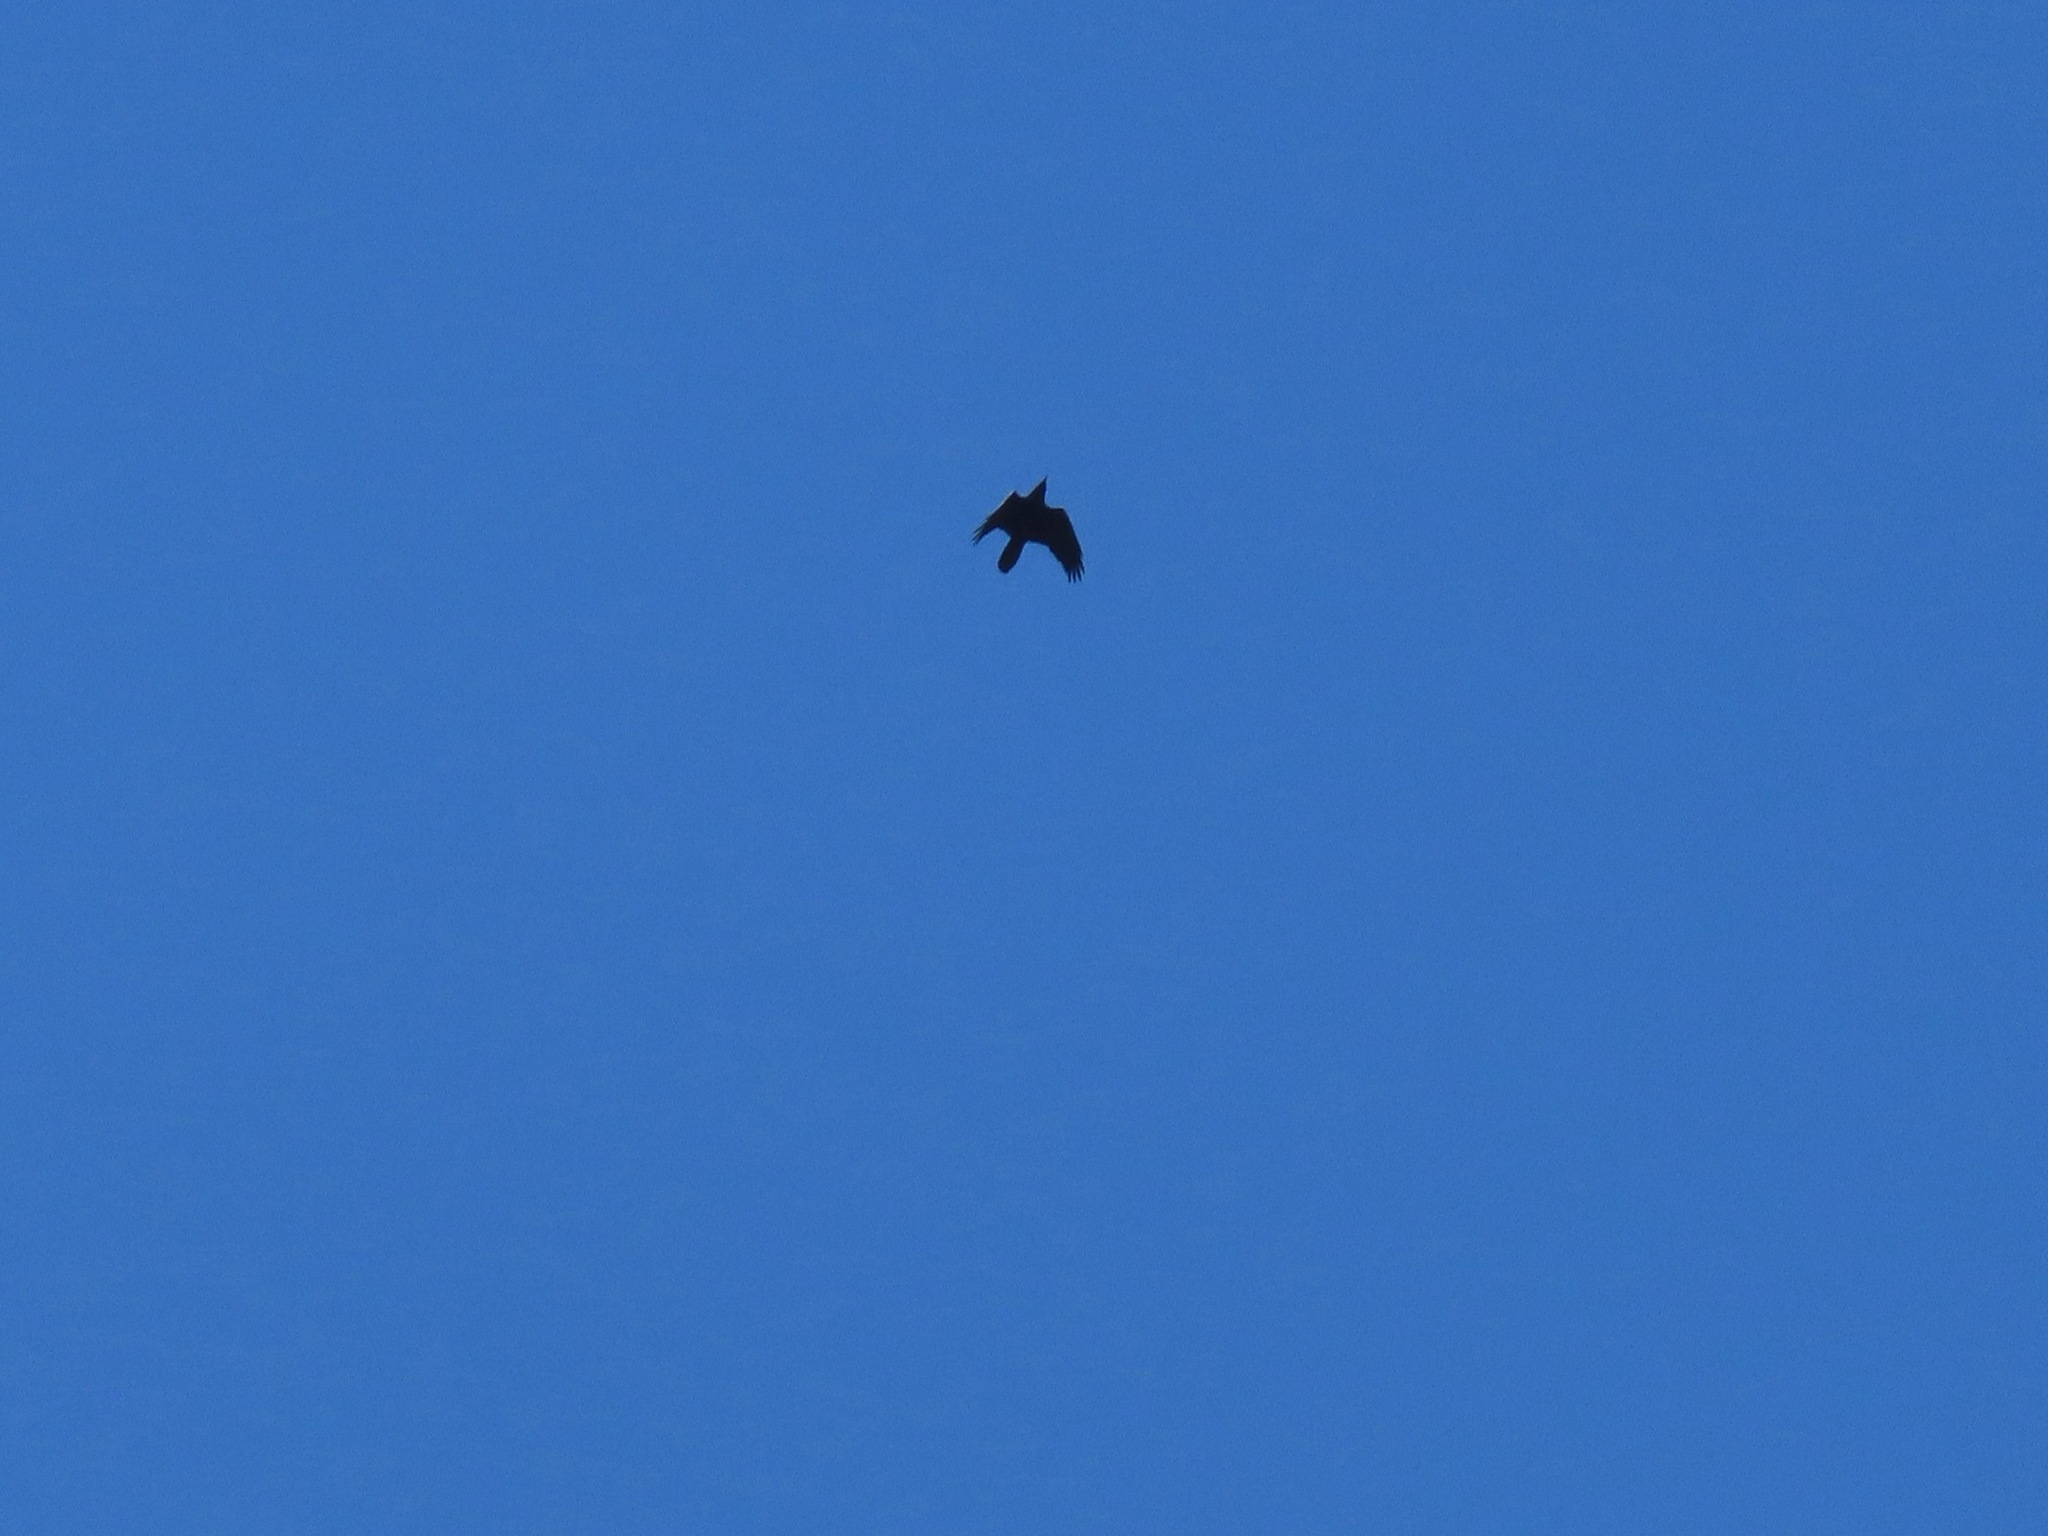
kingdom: Animalia
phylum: Chordata
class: Aves
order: Passeriformes
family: Corvidae
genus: Corvus
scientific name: Corvus corax
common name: Common raven
